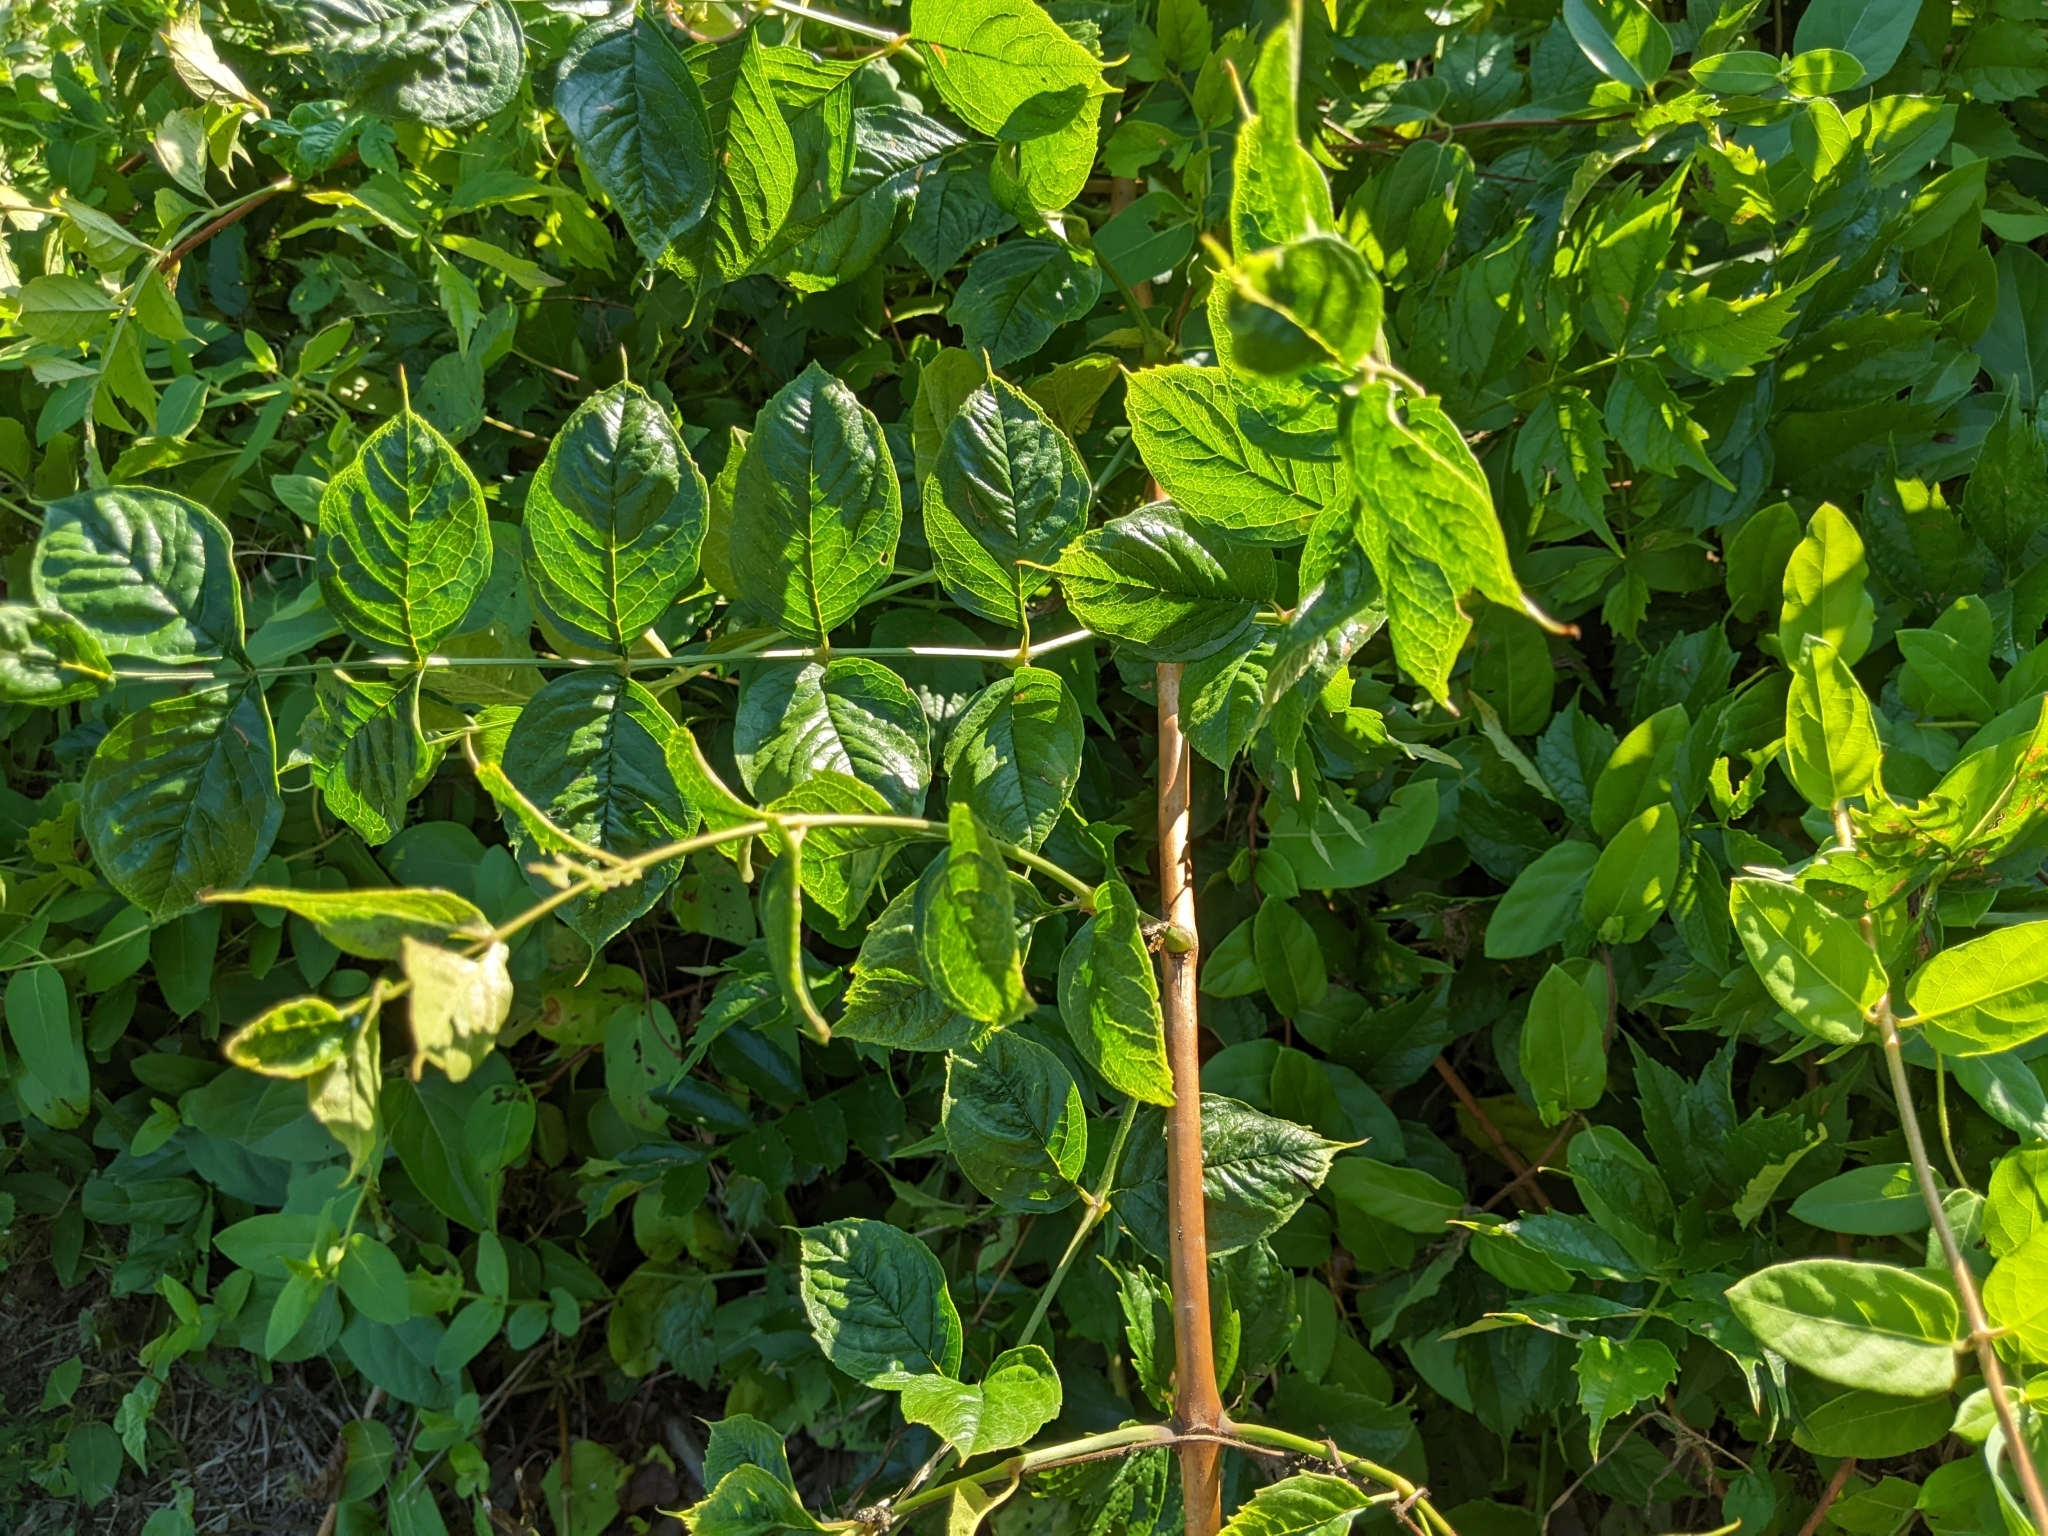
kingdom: Plantae
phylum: Tracheophyta
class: Magnoliopsida
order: Lamiales
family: Bignoniaceae
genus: Campsis
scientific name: Campsis radicans
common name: Trumpet-creeper
